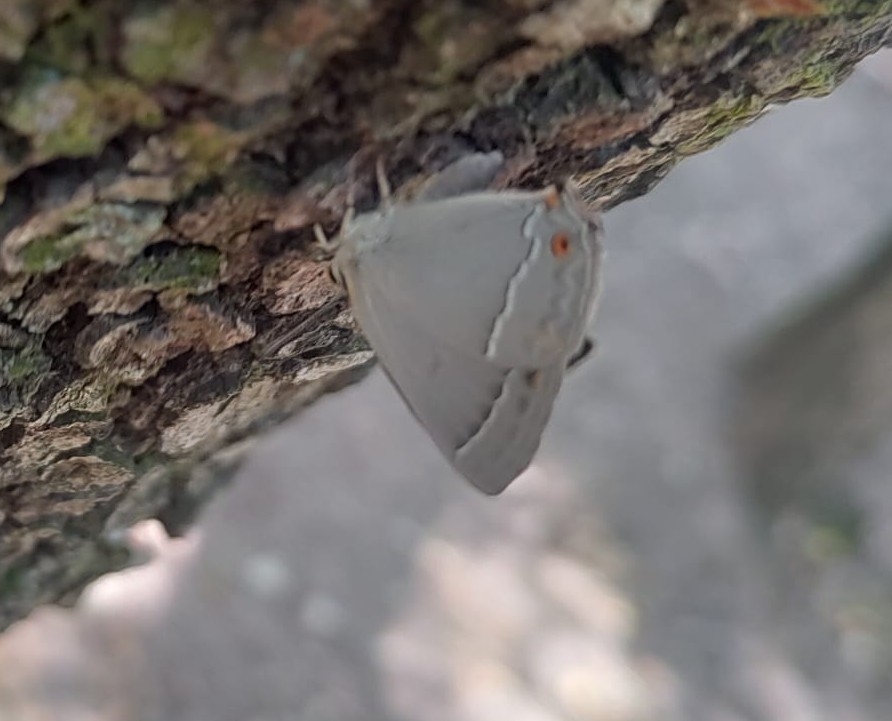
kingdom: Animalia
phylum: Arthropoda
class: Insecta
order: Lepidoptera
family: Lycaenidae
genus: Quercusia
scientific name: Quercusia quercus
